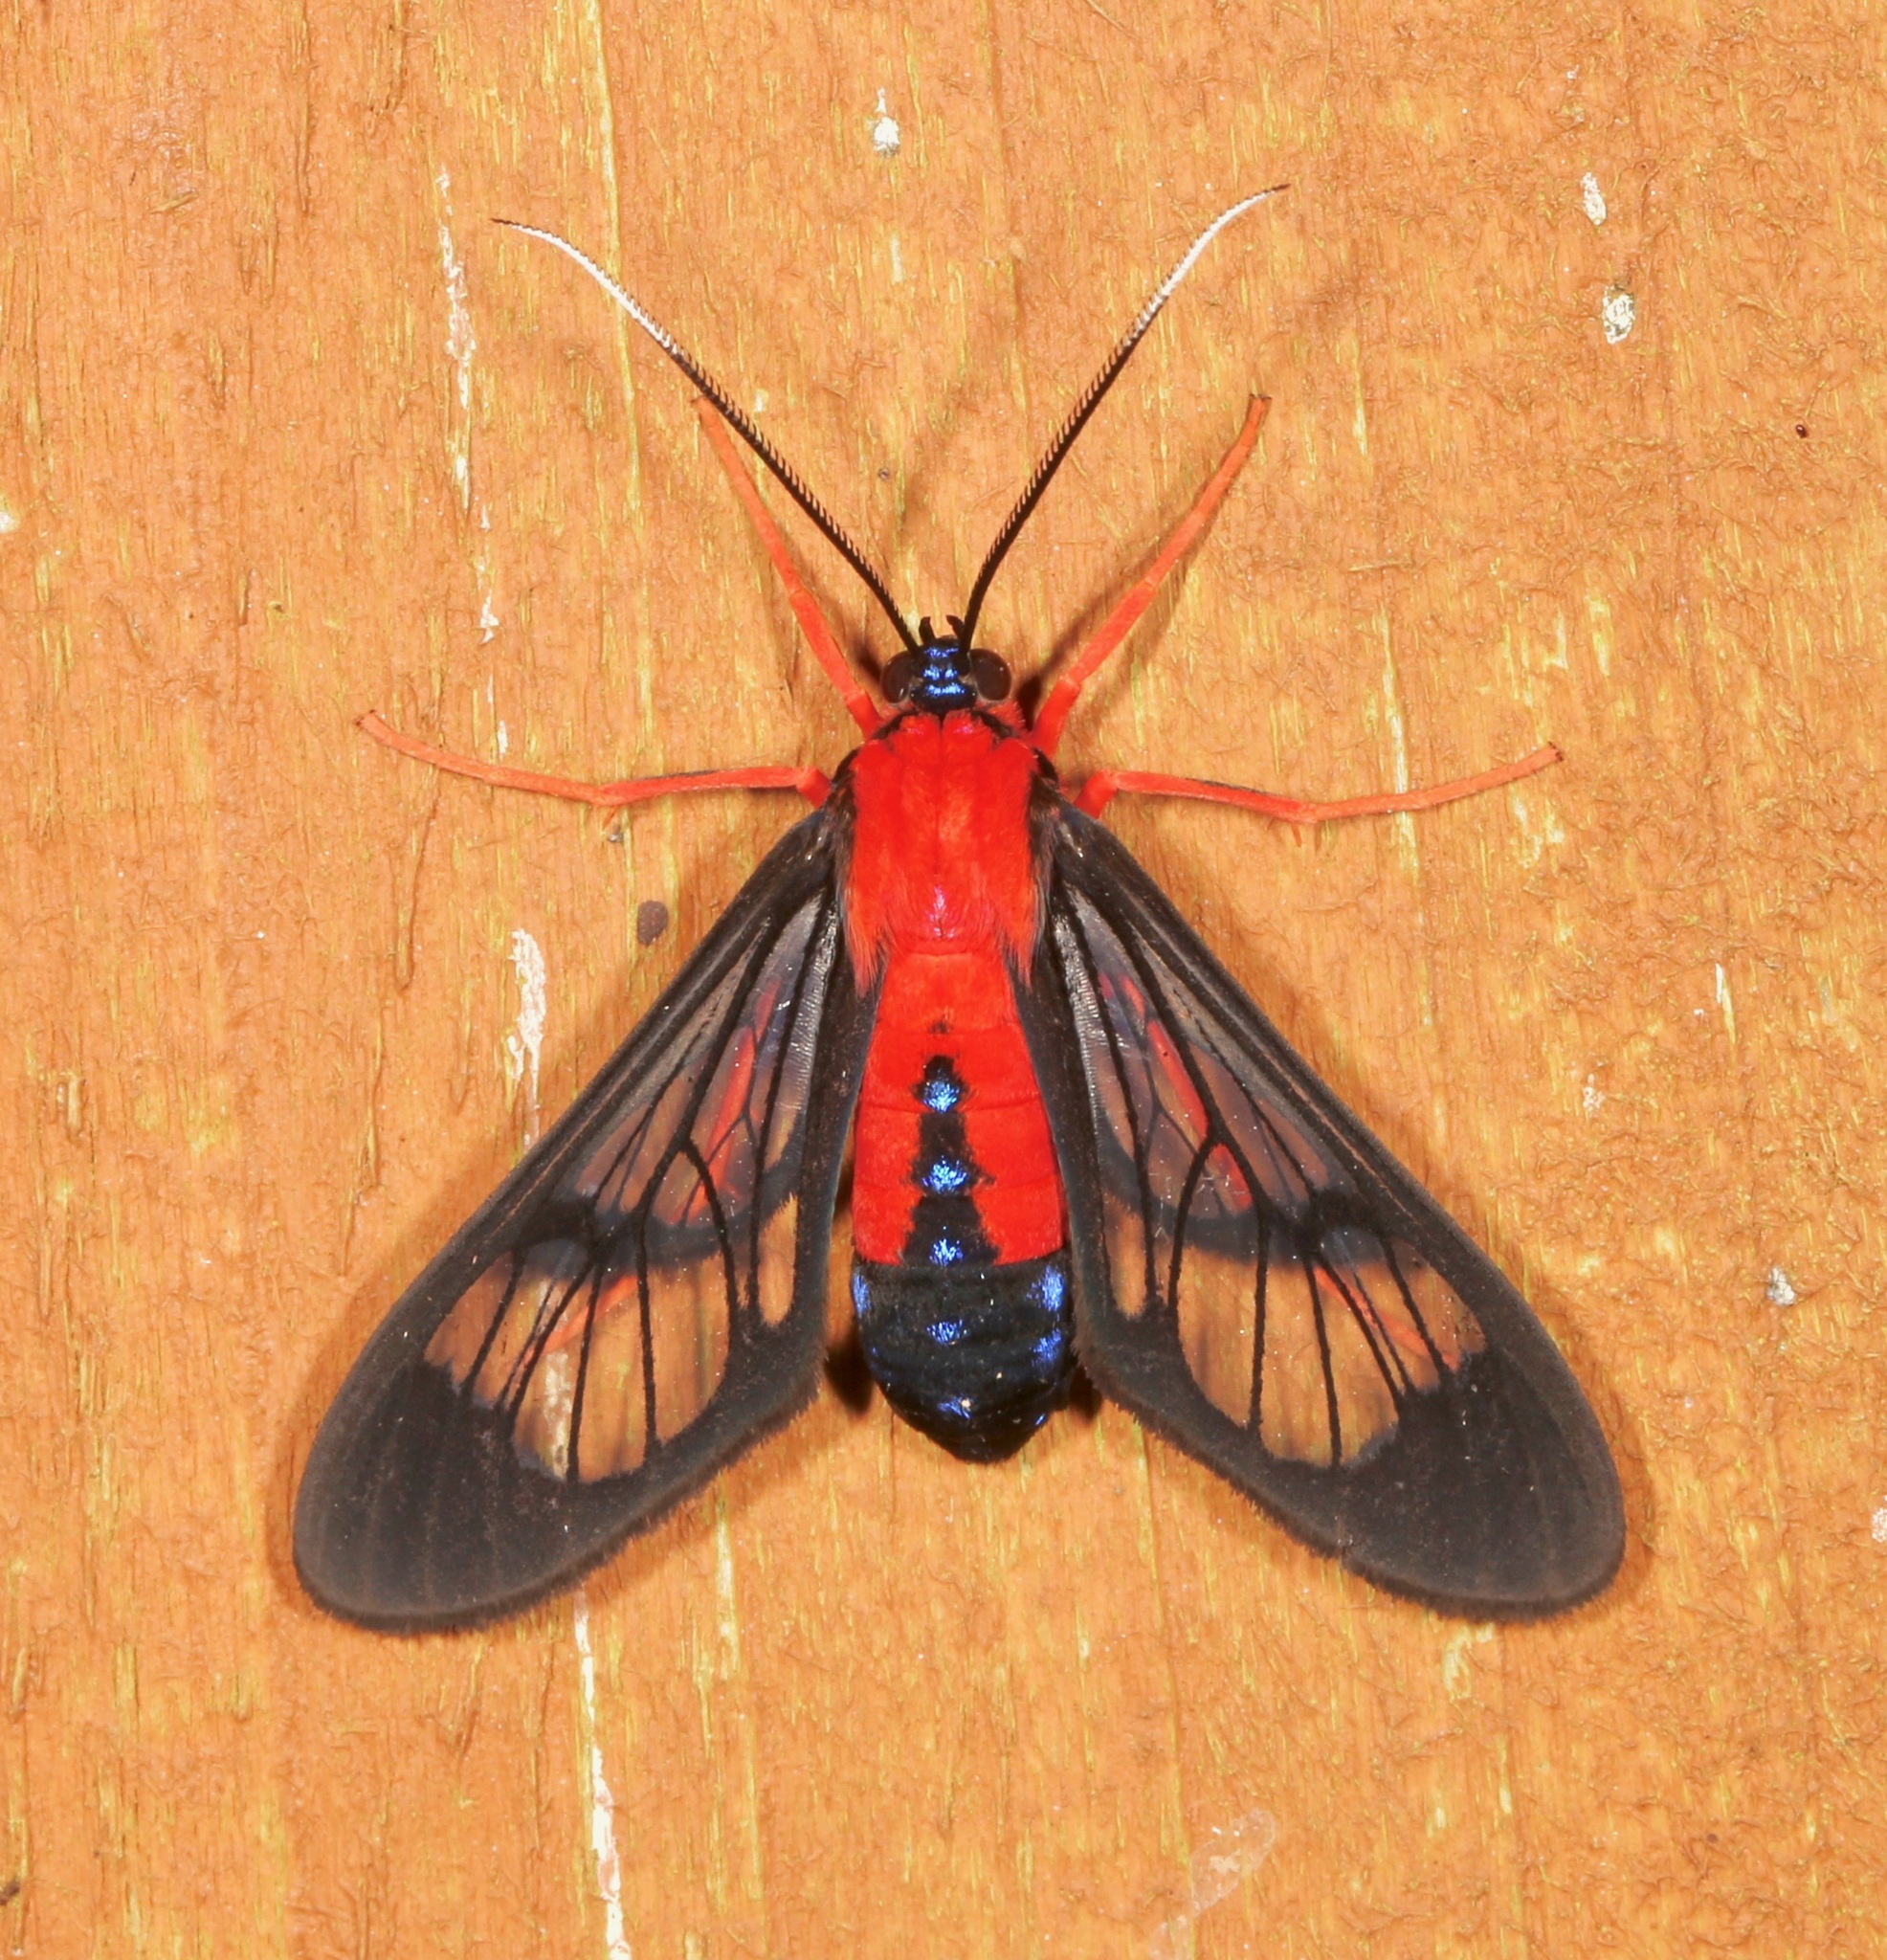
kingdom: Animalia
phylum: Arthropoda
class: Insecta
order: Lepidoptera
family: Erebidae
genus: Cosmosoma
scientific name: Cosmosoma myrodora
